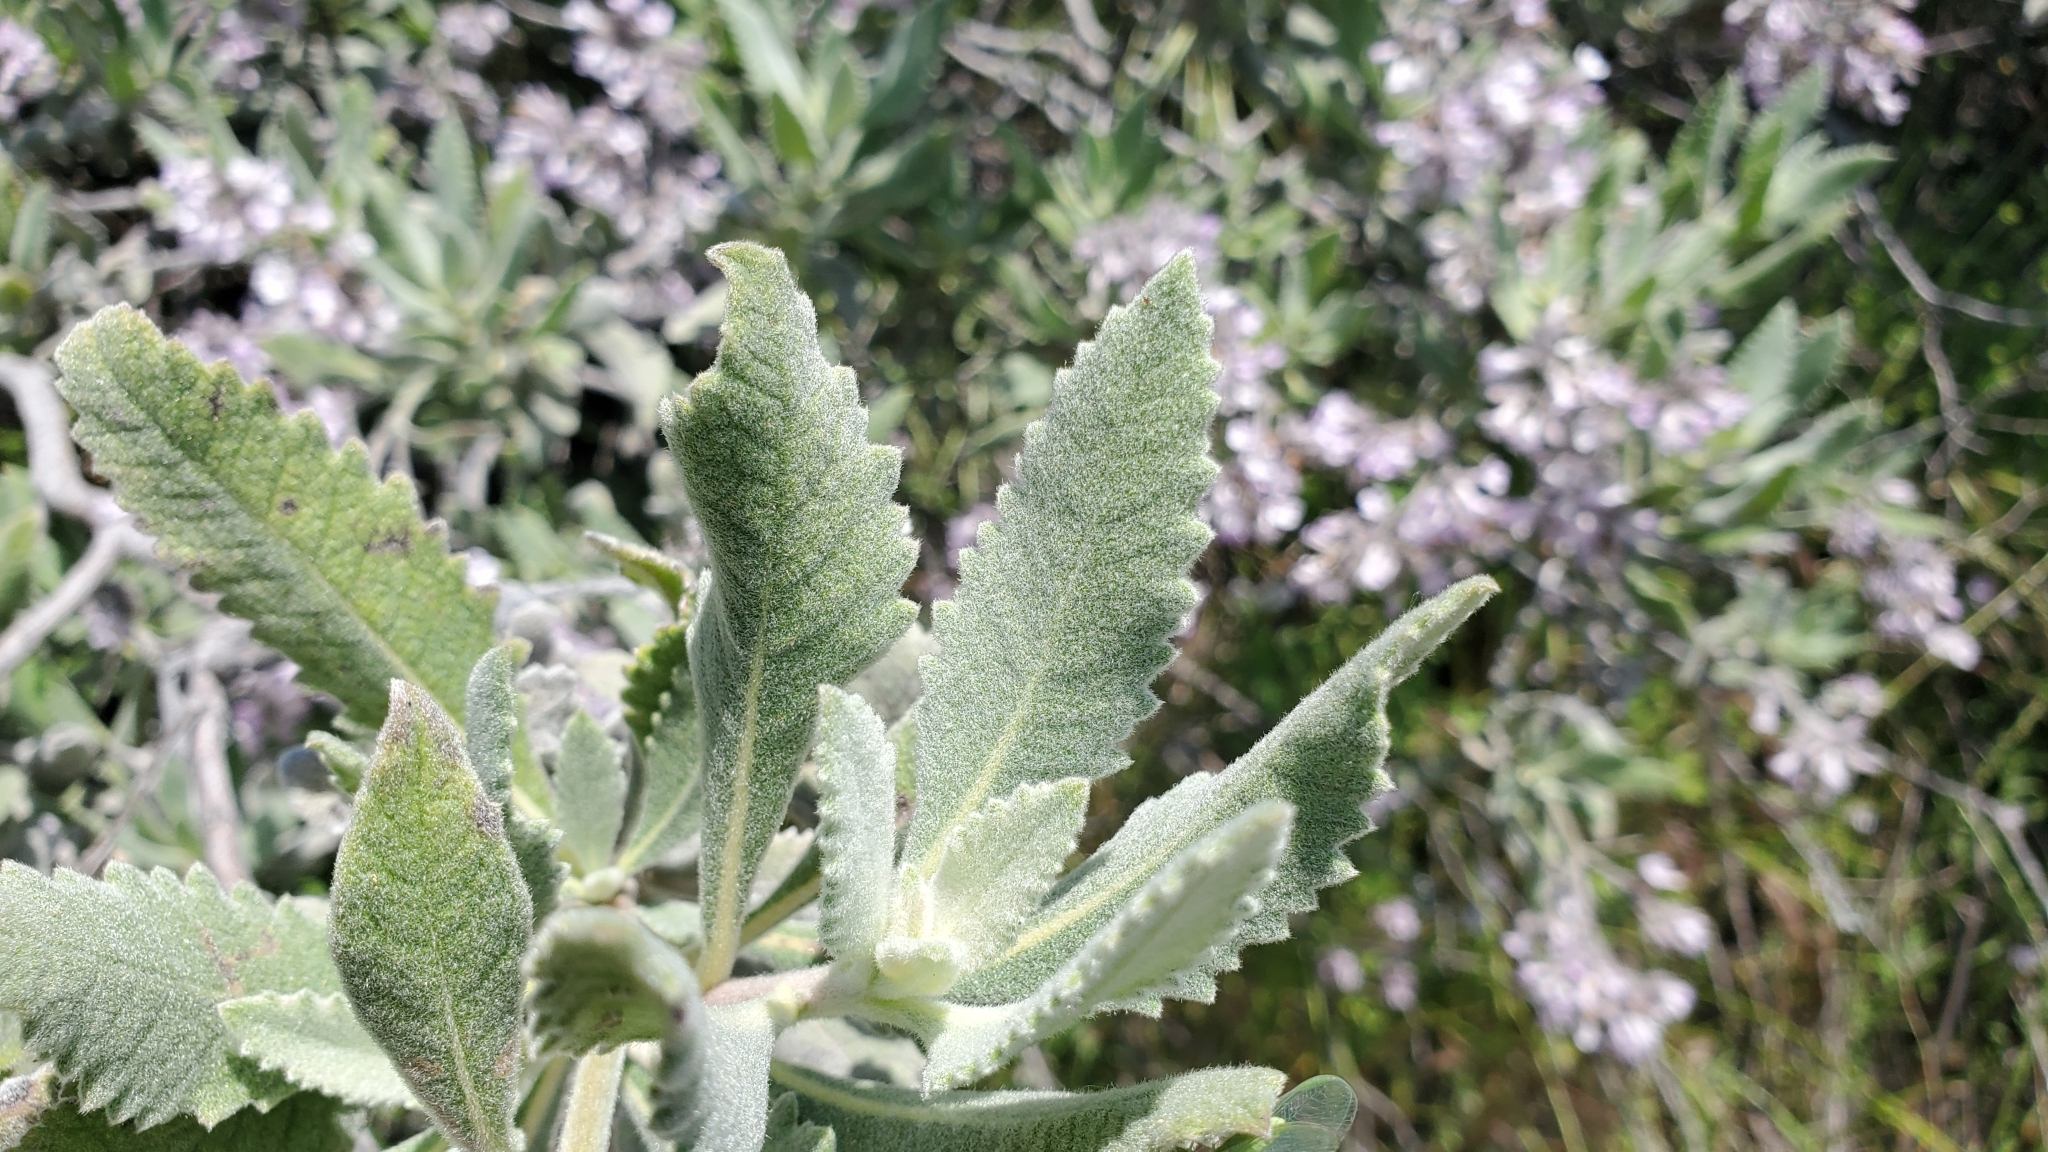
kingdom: Plantae
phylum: Tracheophyta
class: Magnoliopsida
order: Boraginales
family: Namaceae
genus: Eriodictyon
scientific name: Eriodictyon crassifolium
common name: Thick-leaf yerba-santa
